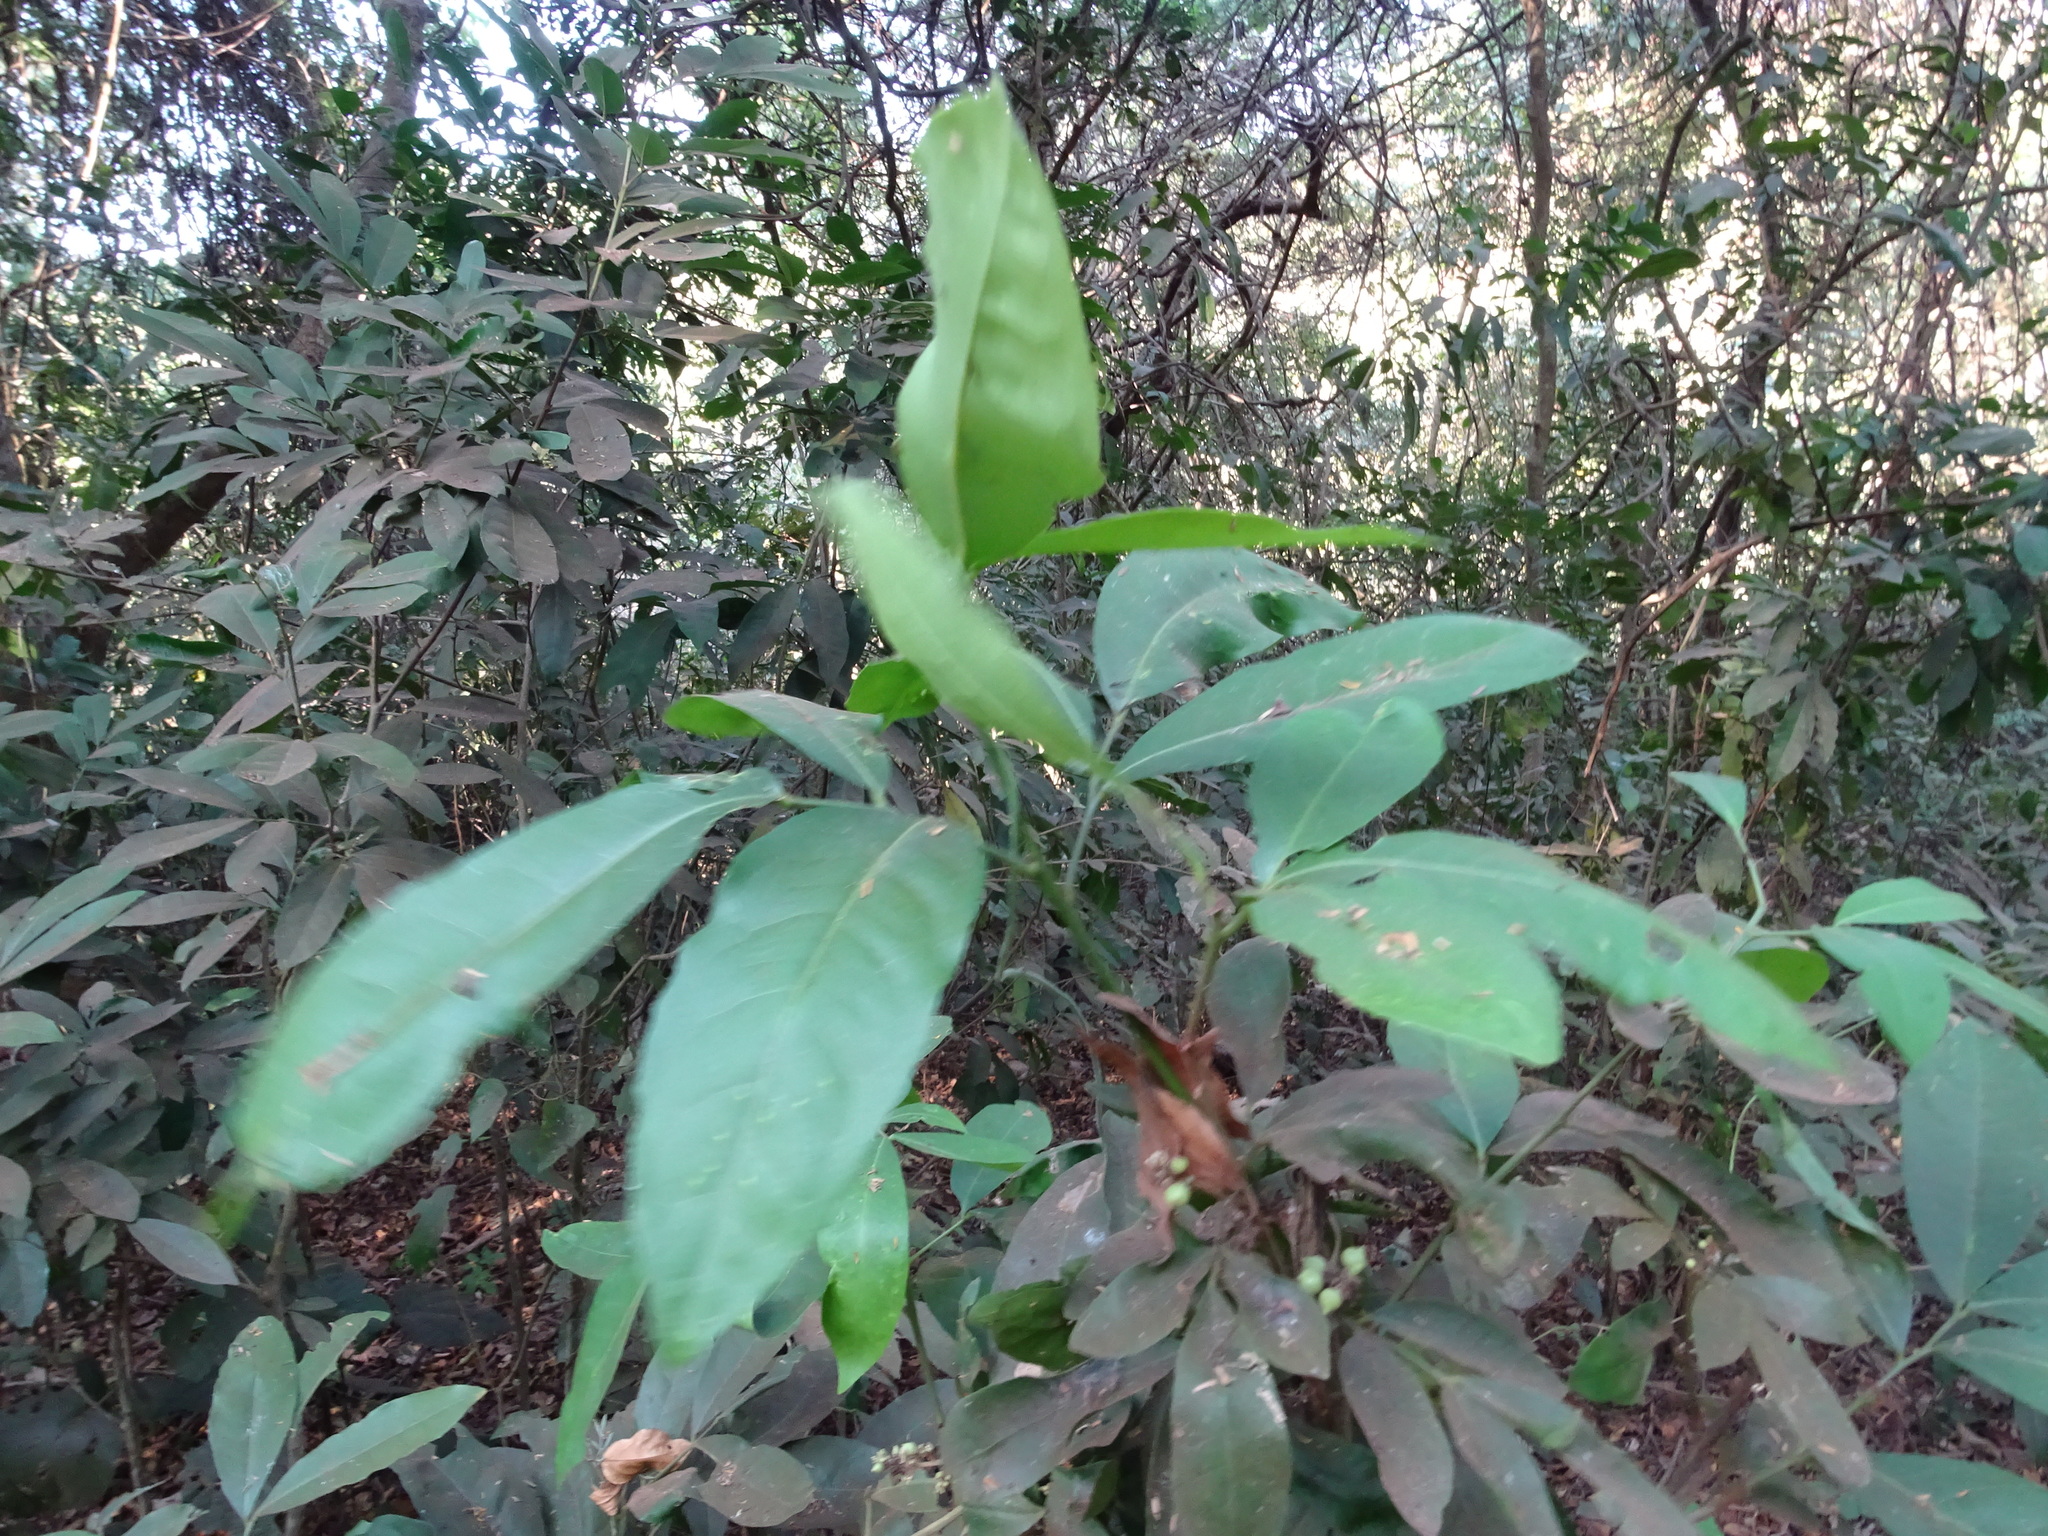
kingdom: Plantae
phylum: Tracheophyta
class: Magnoliopsida
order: Sapindales
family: Rutaceae
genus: Glycosmis
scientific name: Glycosmis pentaphylla
